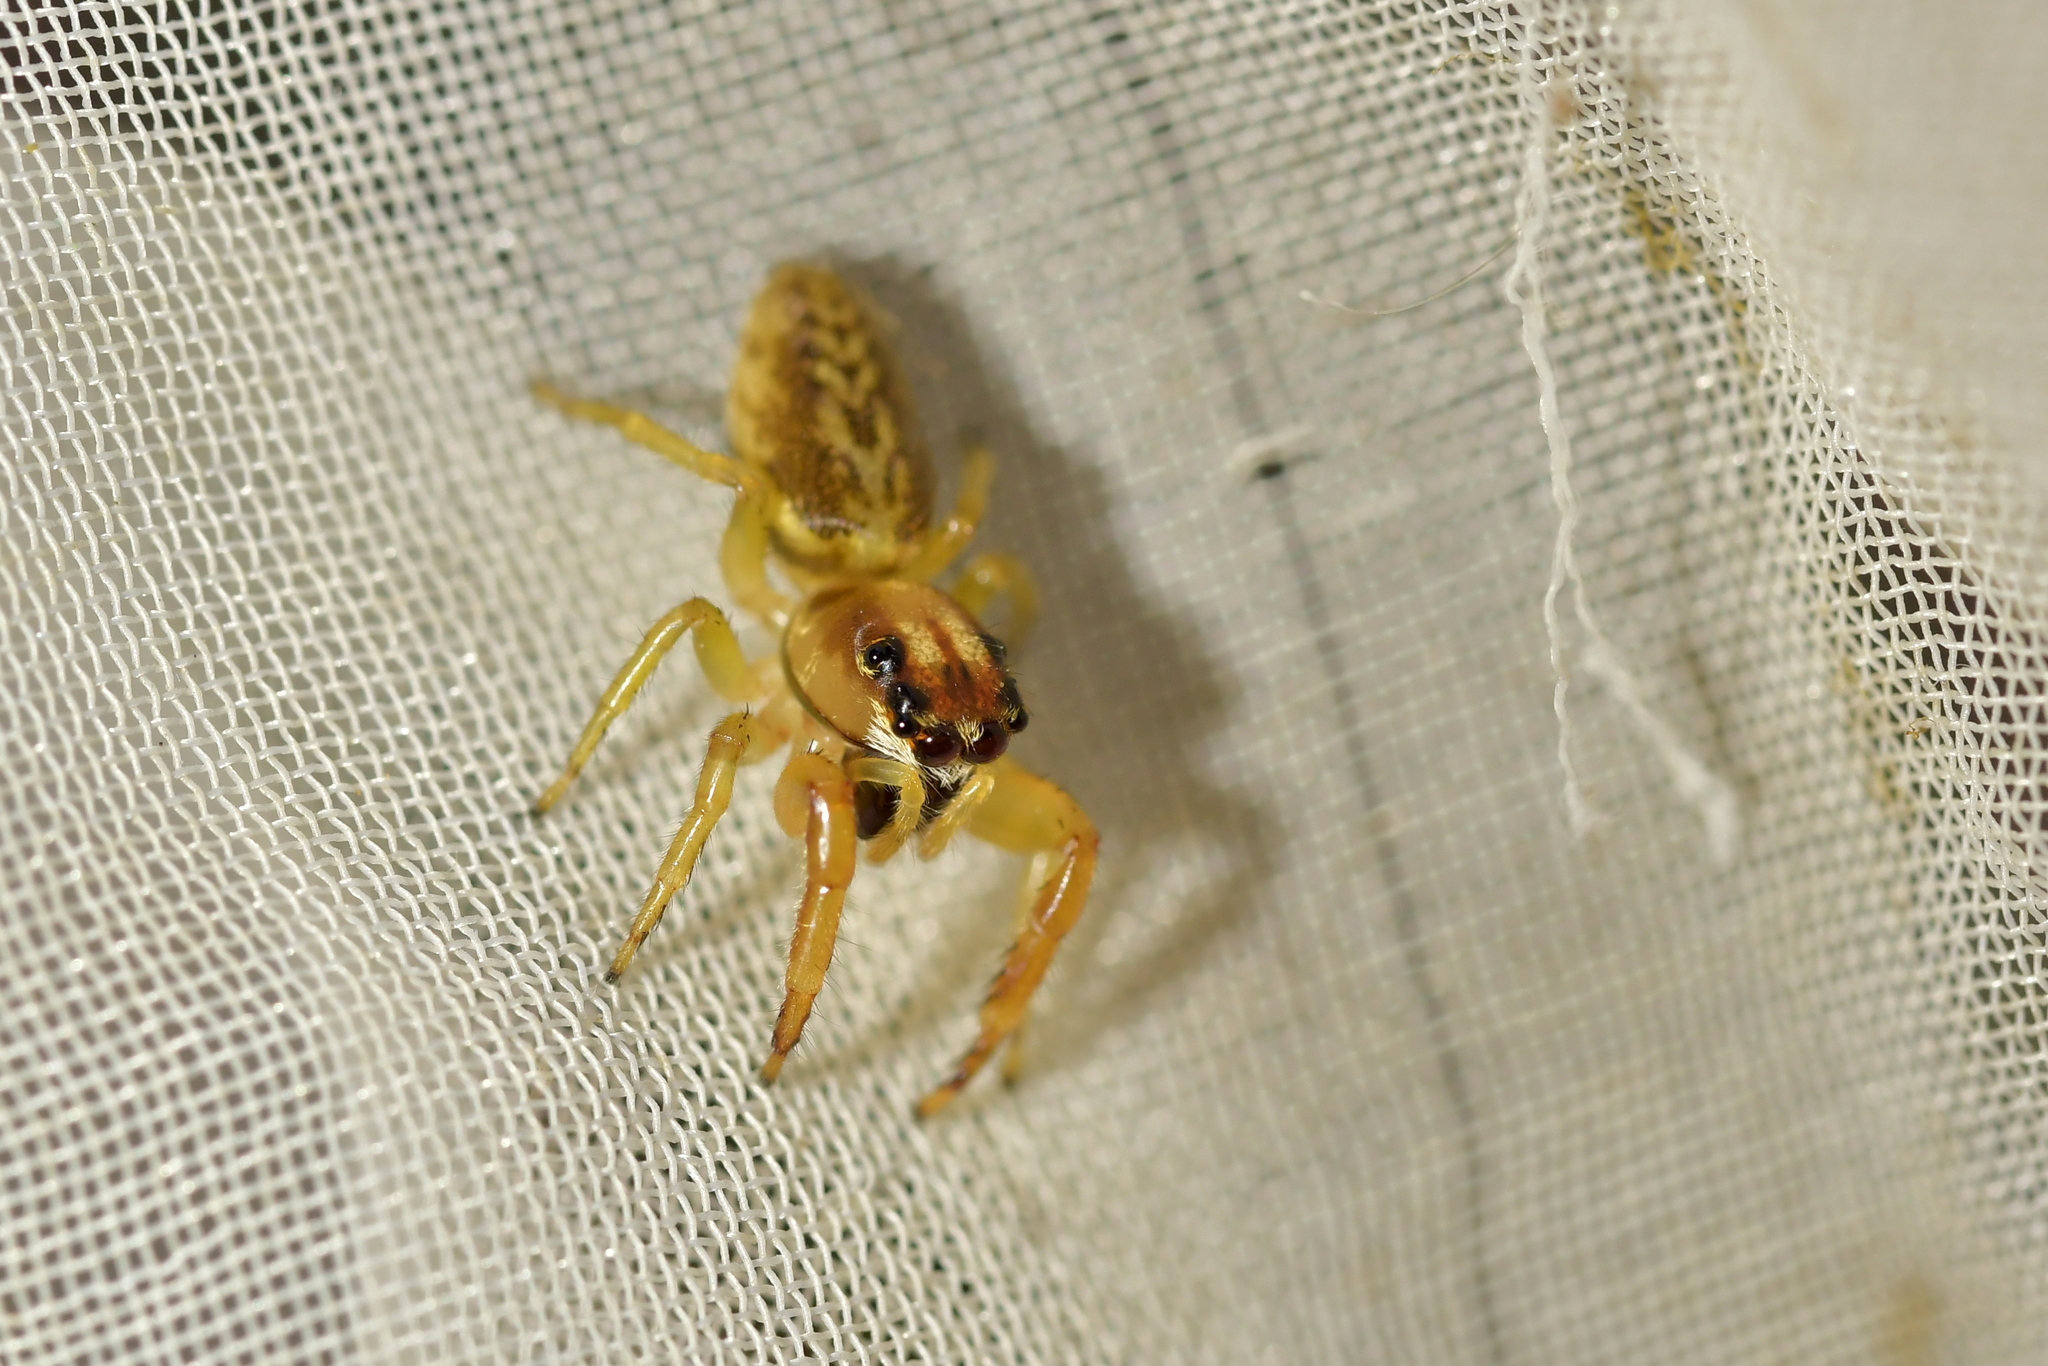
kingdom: Animalia
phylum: Arthropoda
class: Arachnida
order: Araneae
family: Salticidae
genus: Trite
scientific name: Trite mustilina
